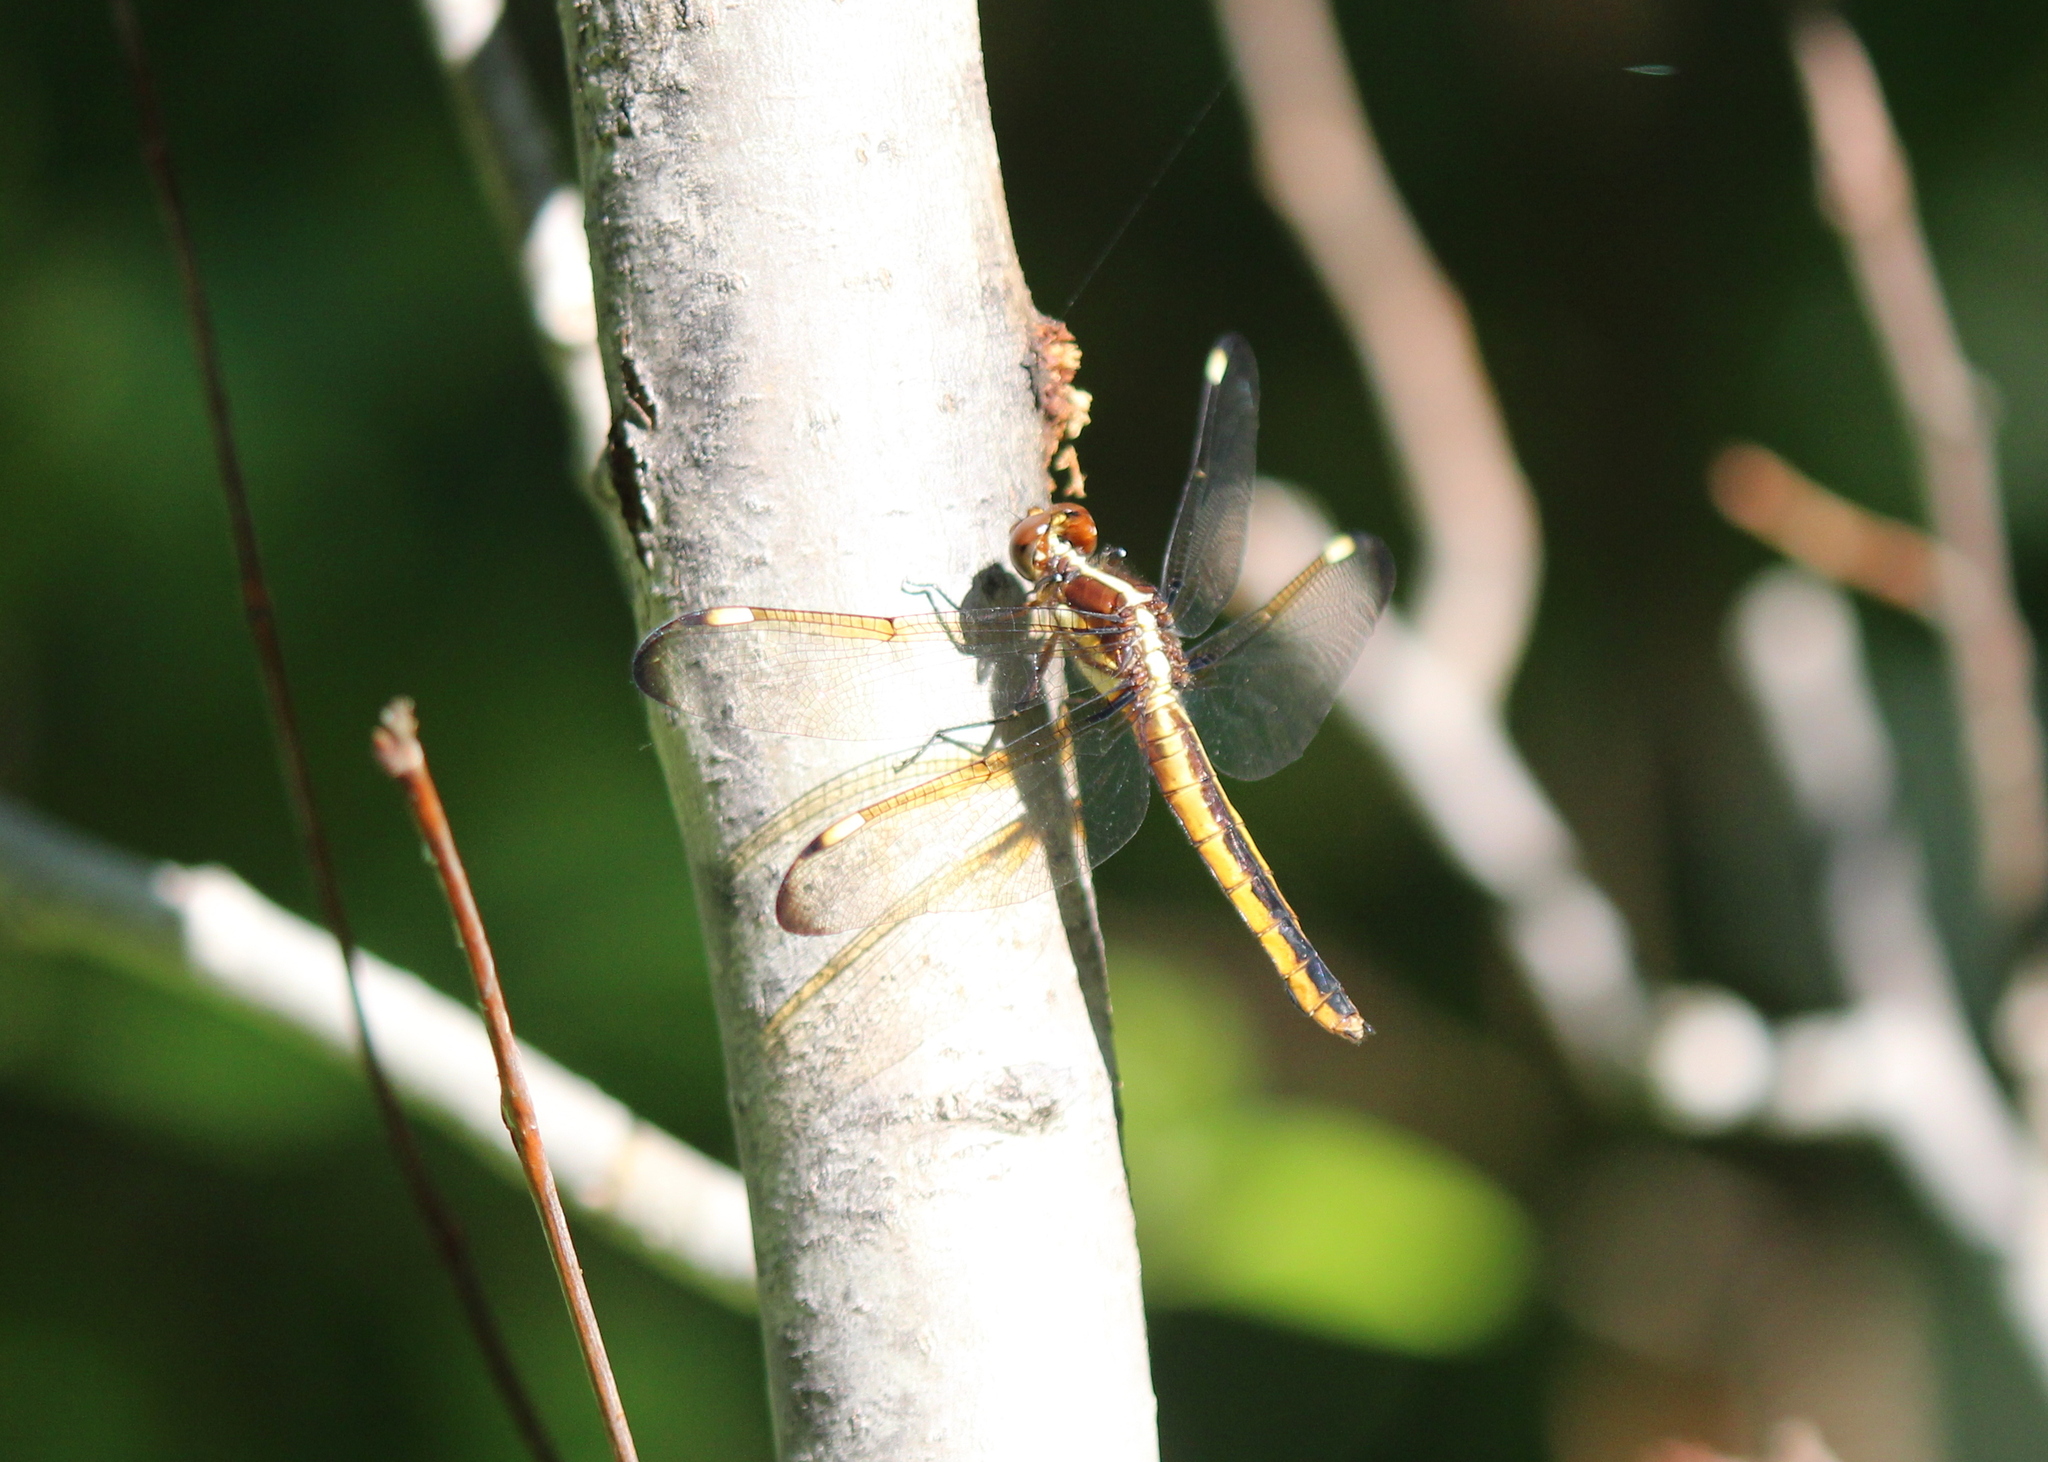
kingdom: Animalia
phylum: Arthropoda
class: Insecta
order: Odonata
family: Libellulidae
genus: Libellula
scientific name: Libellula cyanea
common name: Spangled skimmer
